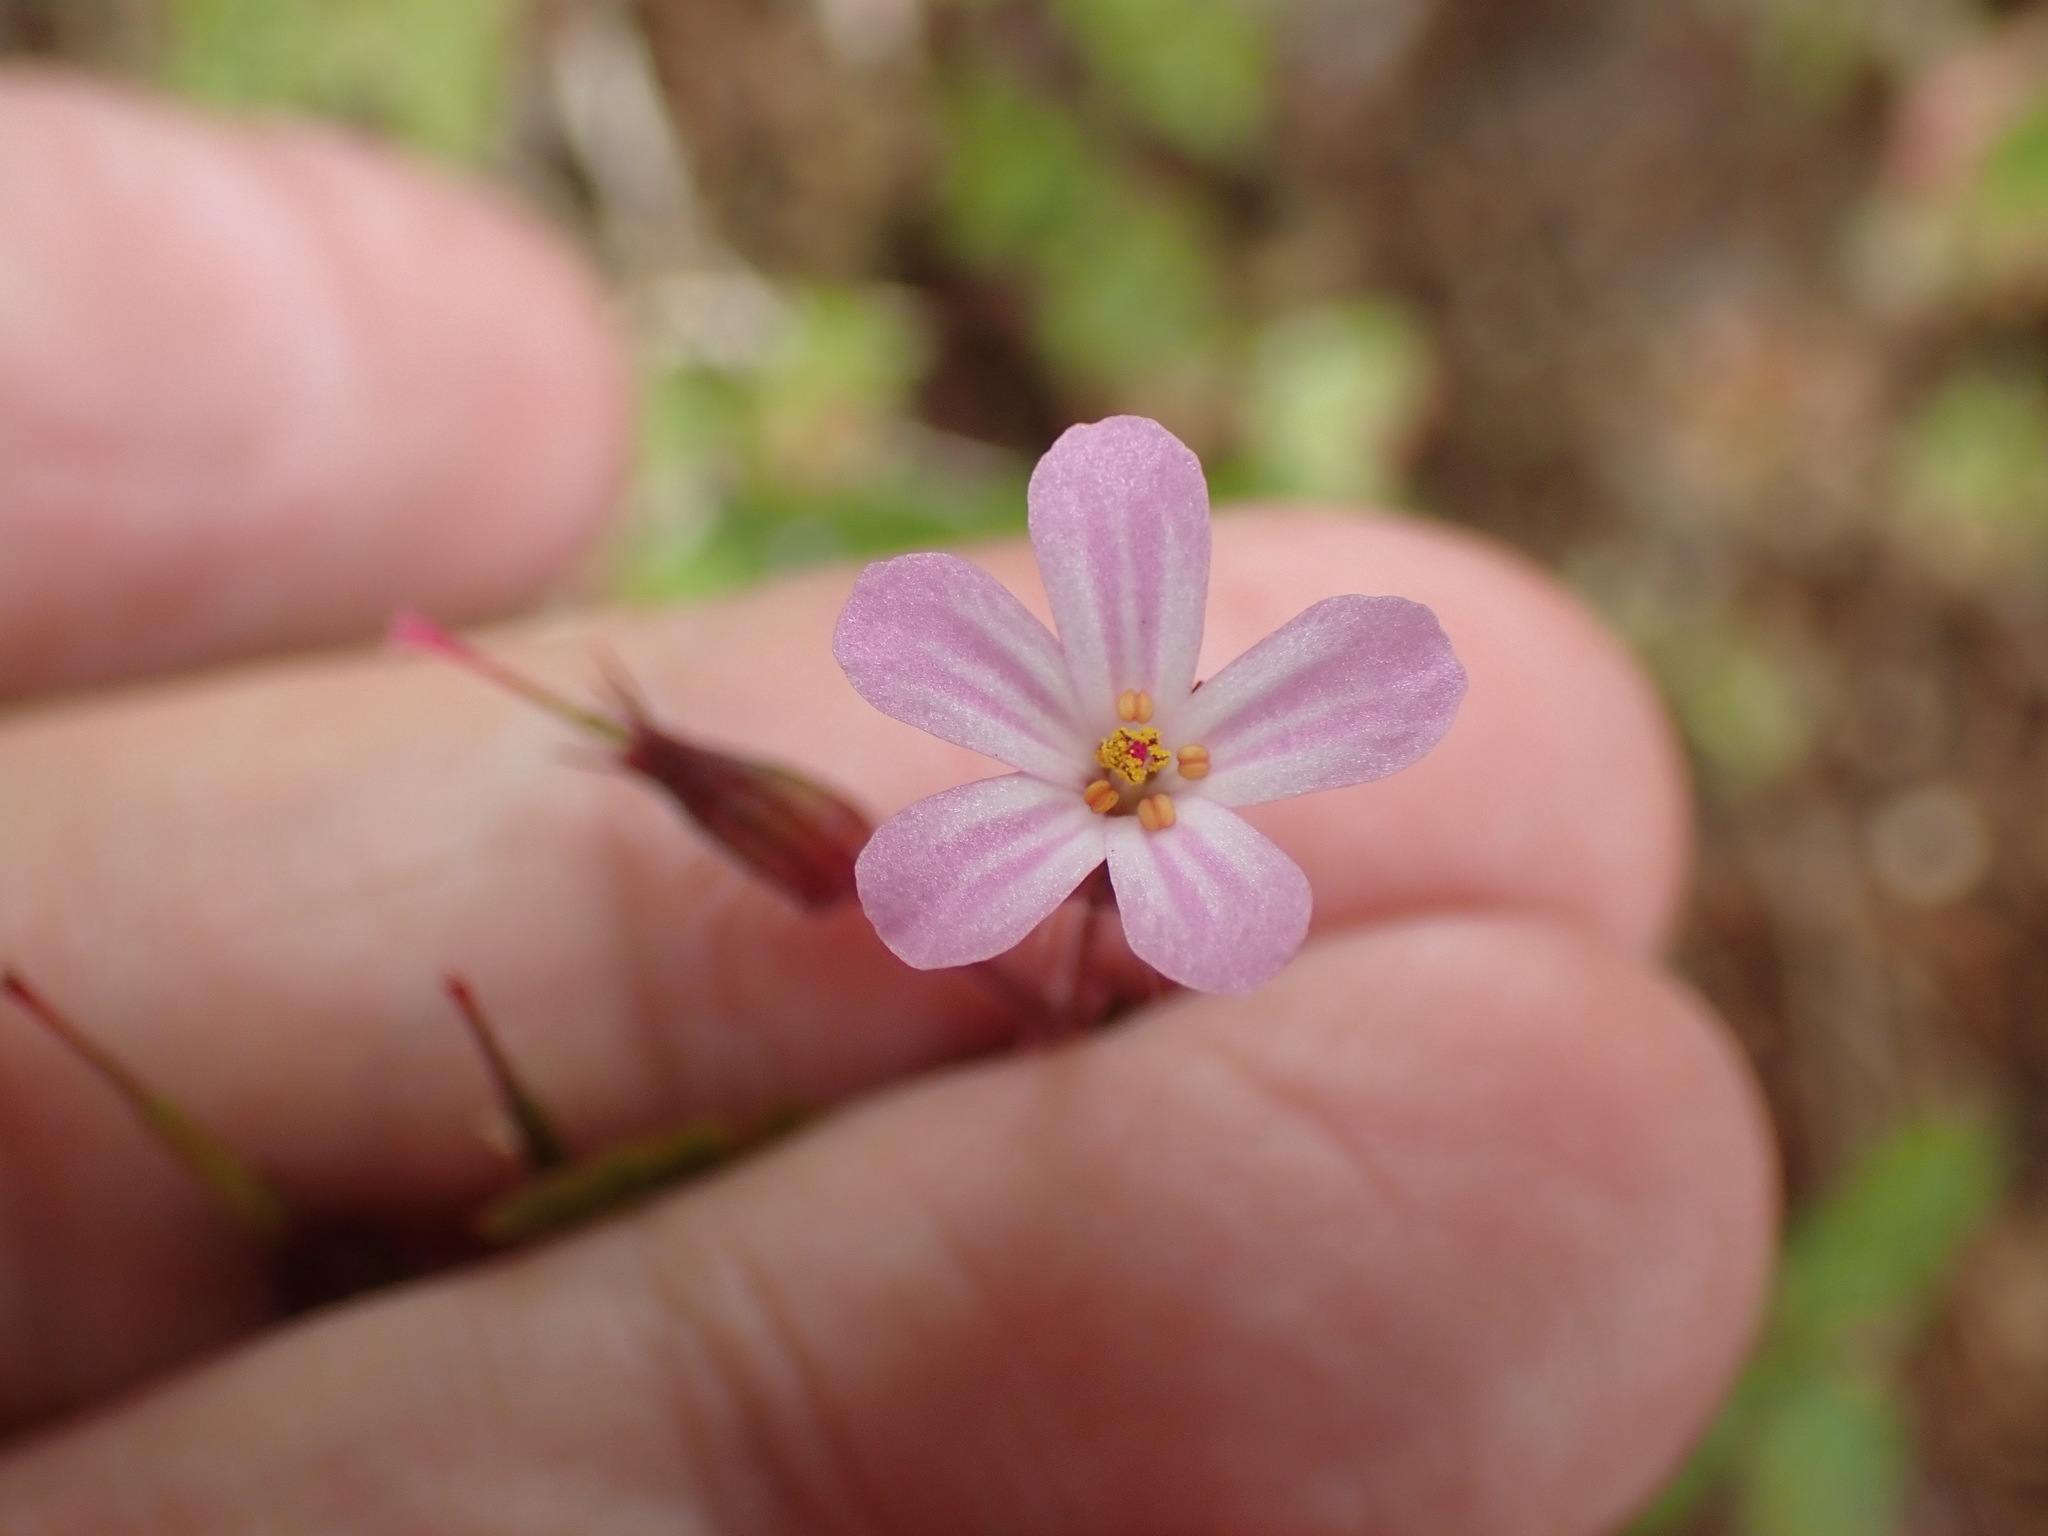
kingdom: Plantae
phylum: Tracheophyta
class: Magnoliopsida
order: Geraniales
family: Geraniaceae
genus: Geranium
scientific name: Geranium robertianum
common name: Herb-robert
